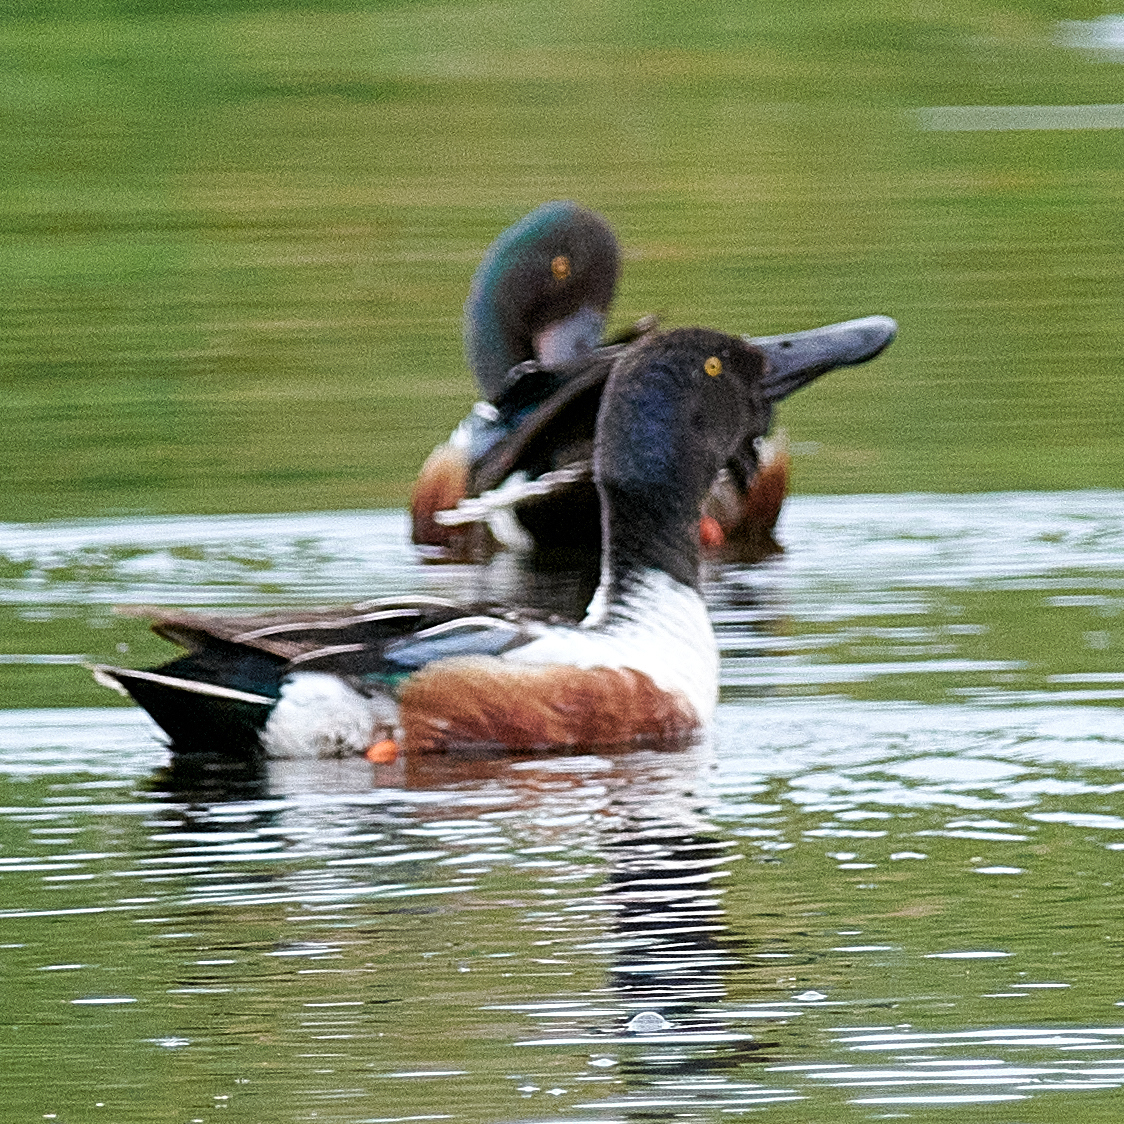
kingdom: Animalia
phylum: Chordata
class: Aves
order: Anseriformes
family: Anatidae
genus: Spatula
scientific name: Spatula clypeata
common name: Northern shoveler
